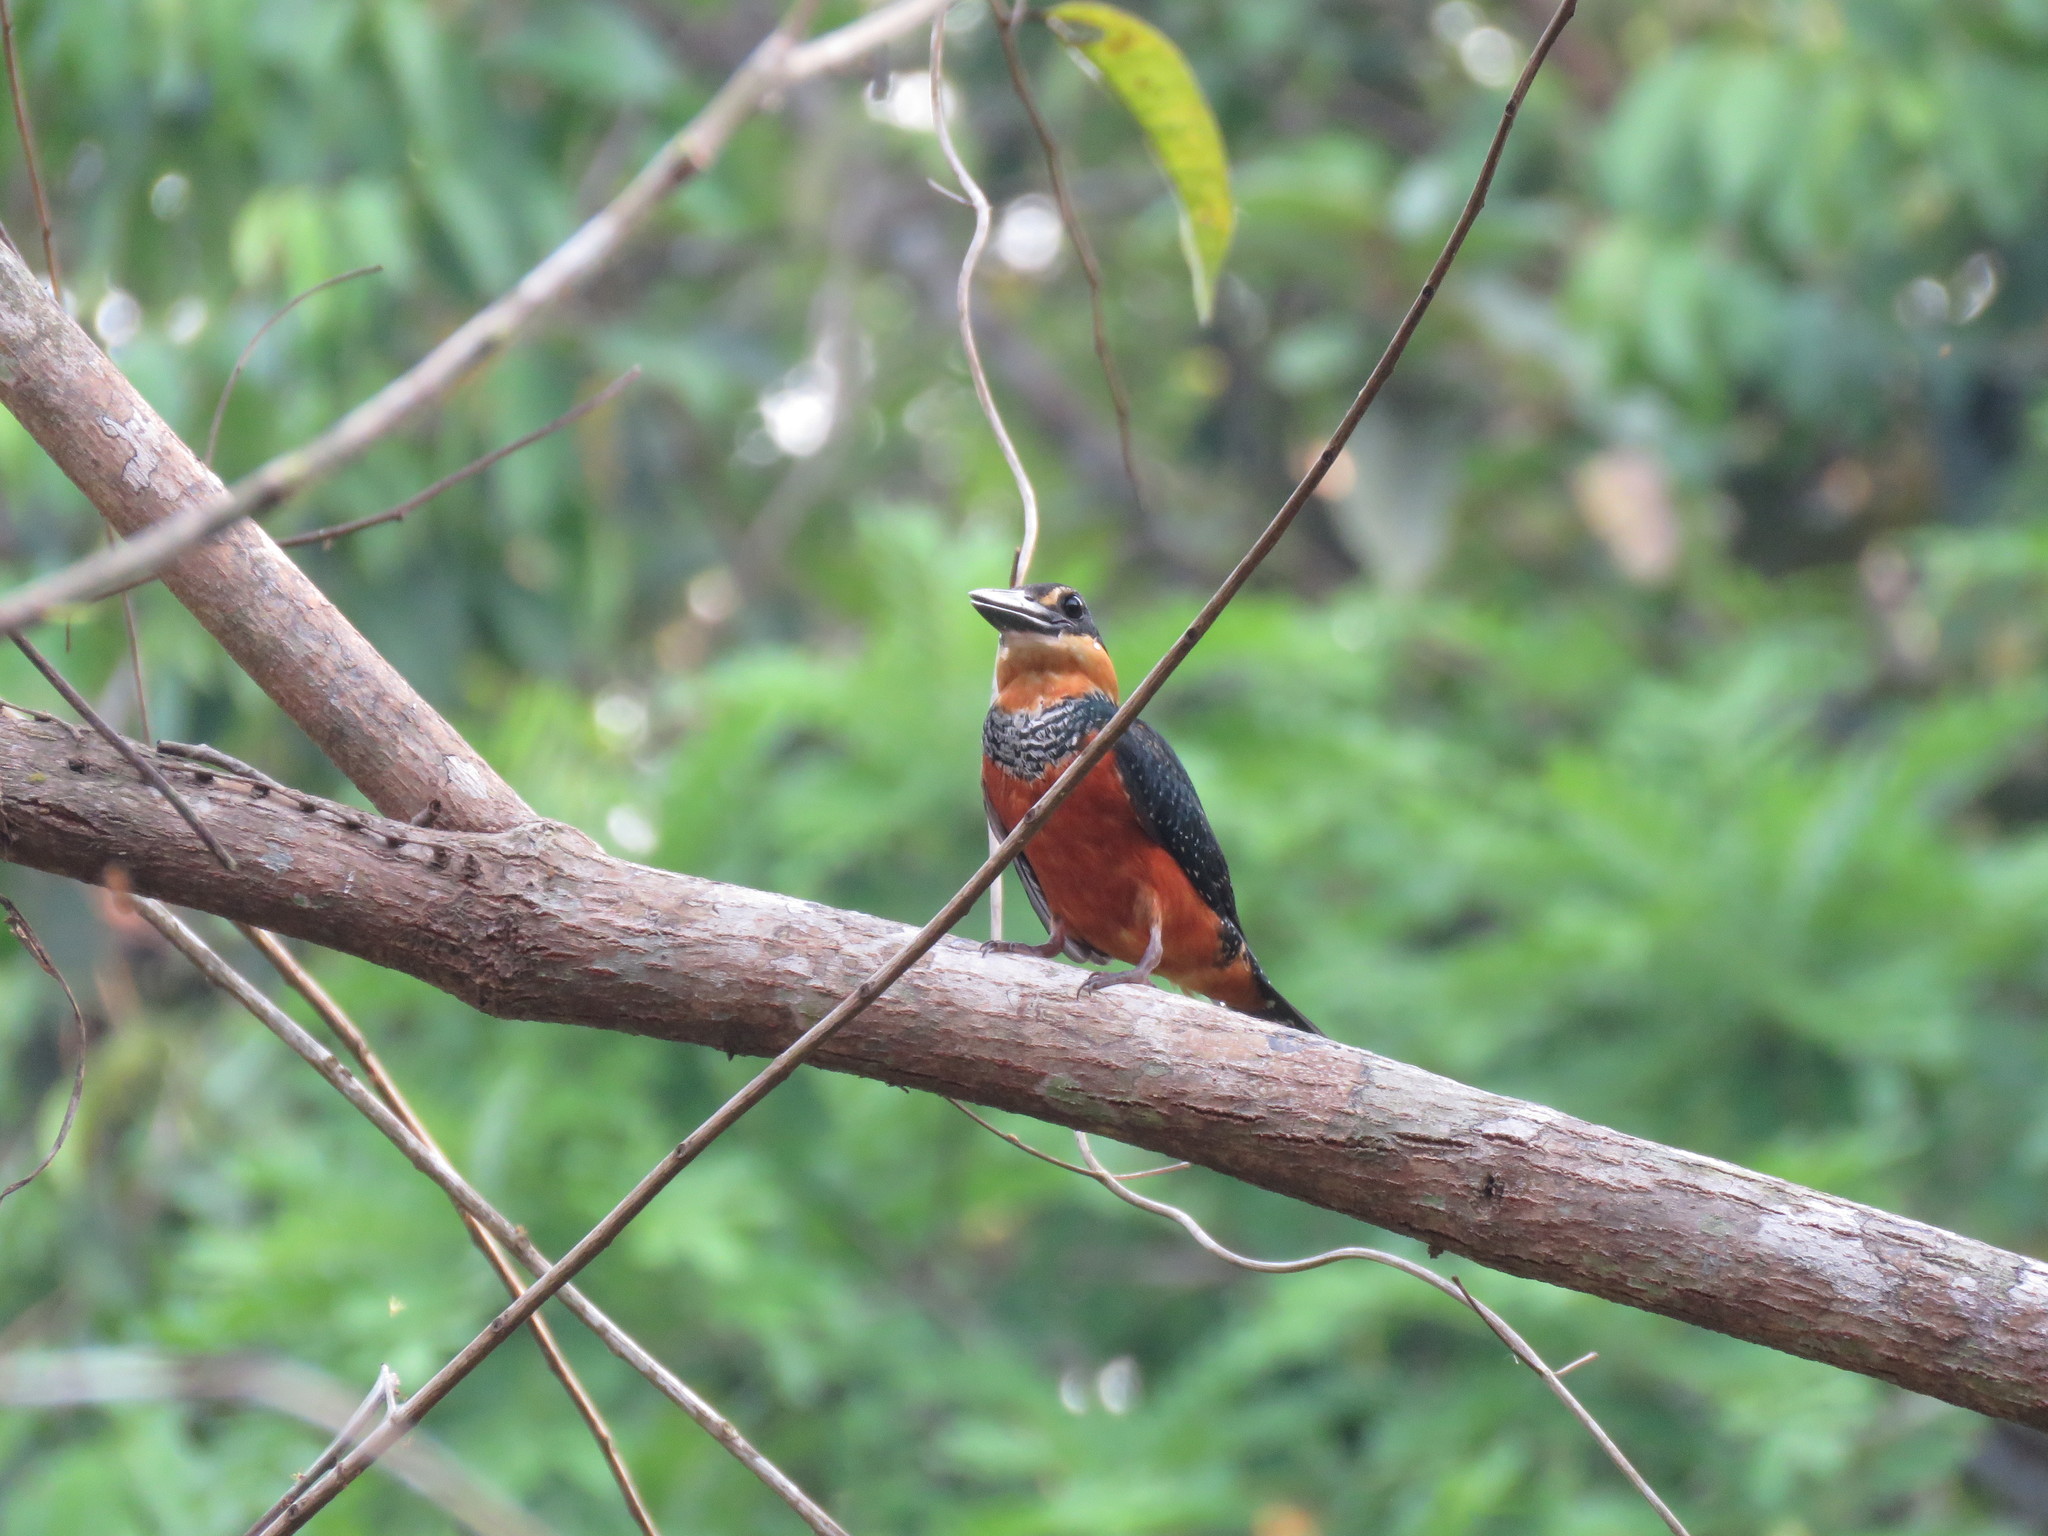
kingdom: Animalia
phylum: Chordata
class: Aves
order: Coraciiformes
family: Alcedinidae
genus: Chloroceryle
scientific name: Chloroceryle inda
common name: Green-and-rufous kingfisher
